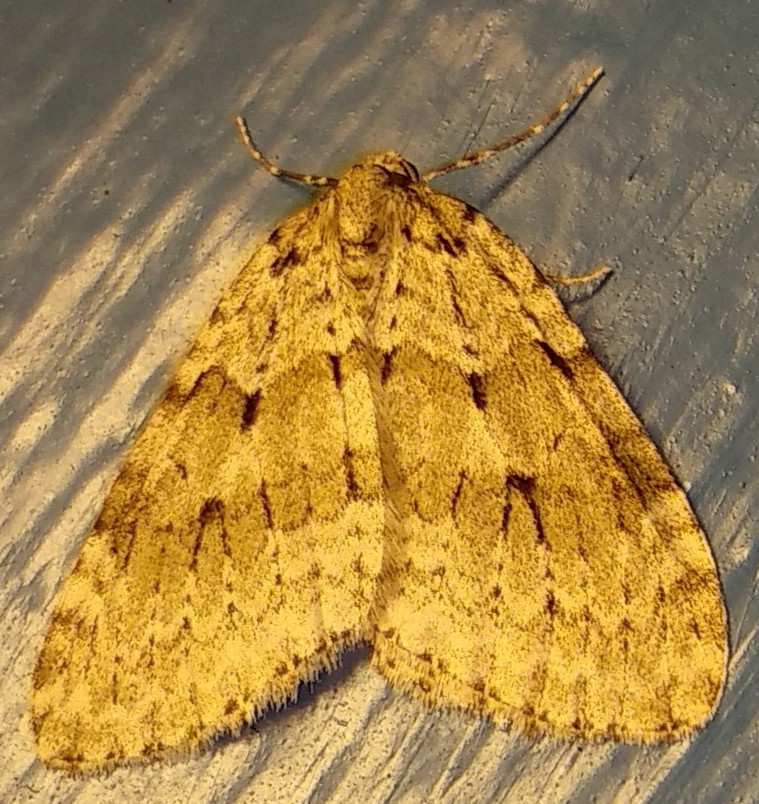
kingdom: Animalia
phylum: Arthropoda
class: Insecta
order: Lepidoptera
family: Geometridae
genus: Epirrita
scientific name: Epirrita autumnata
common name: Autumnal moth
